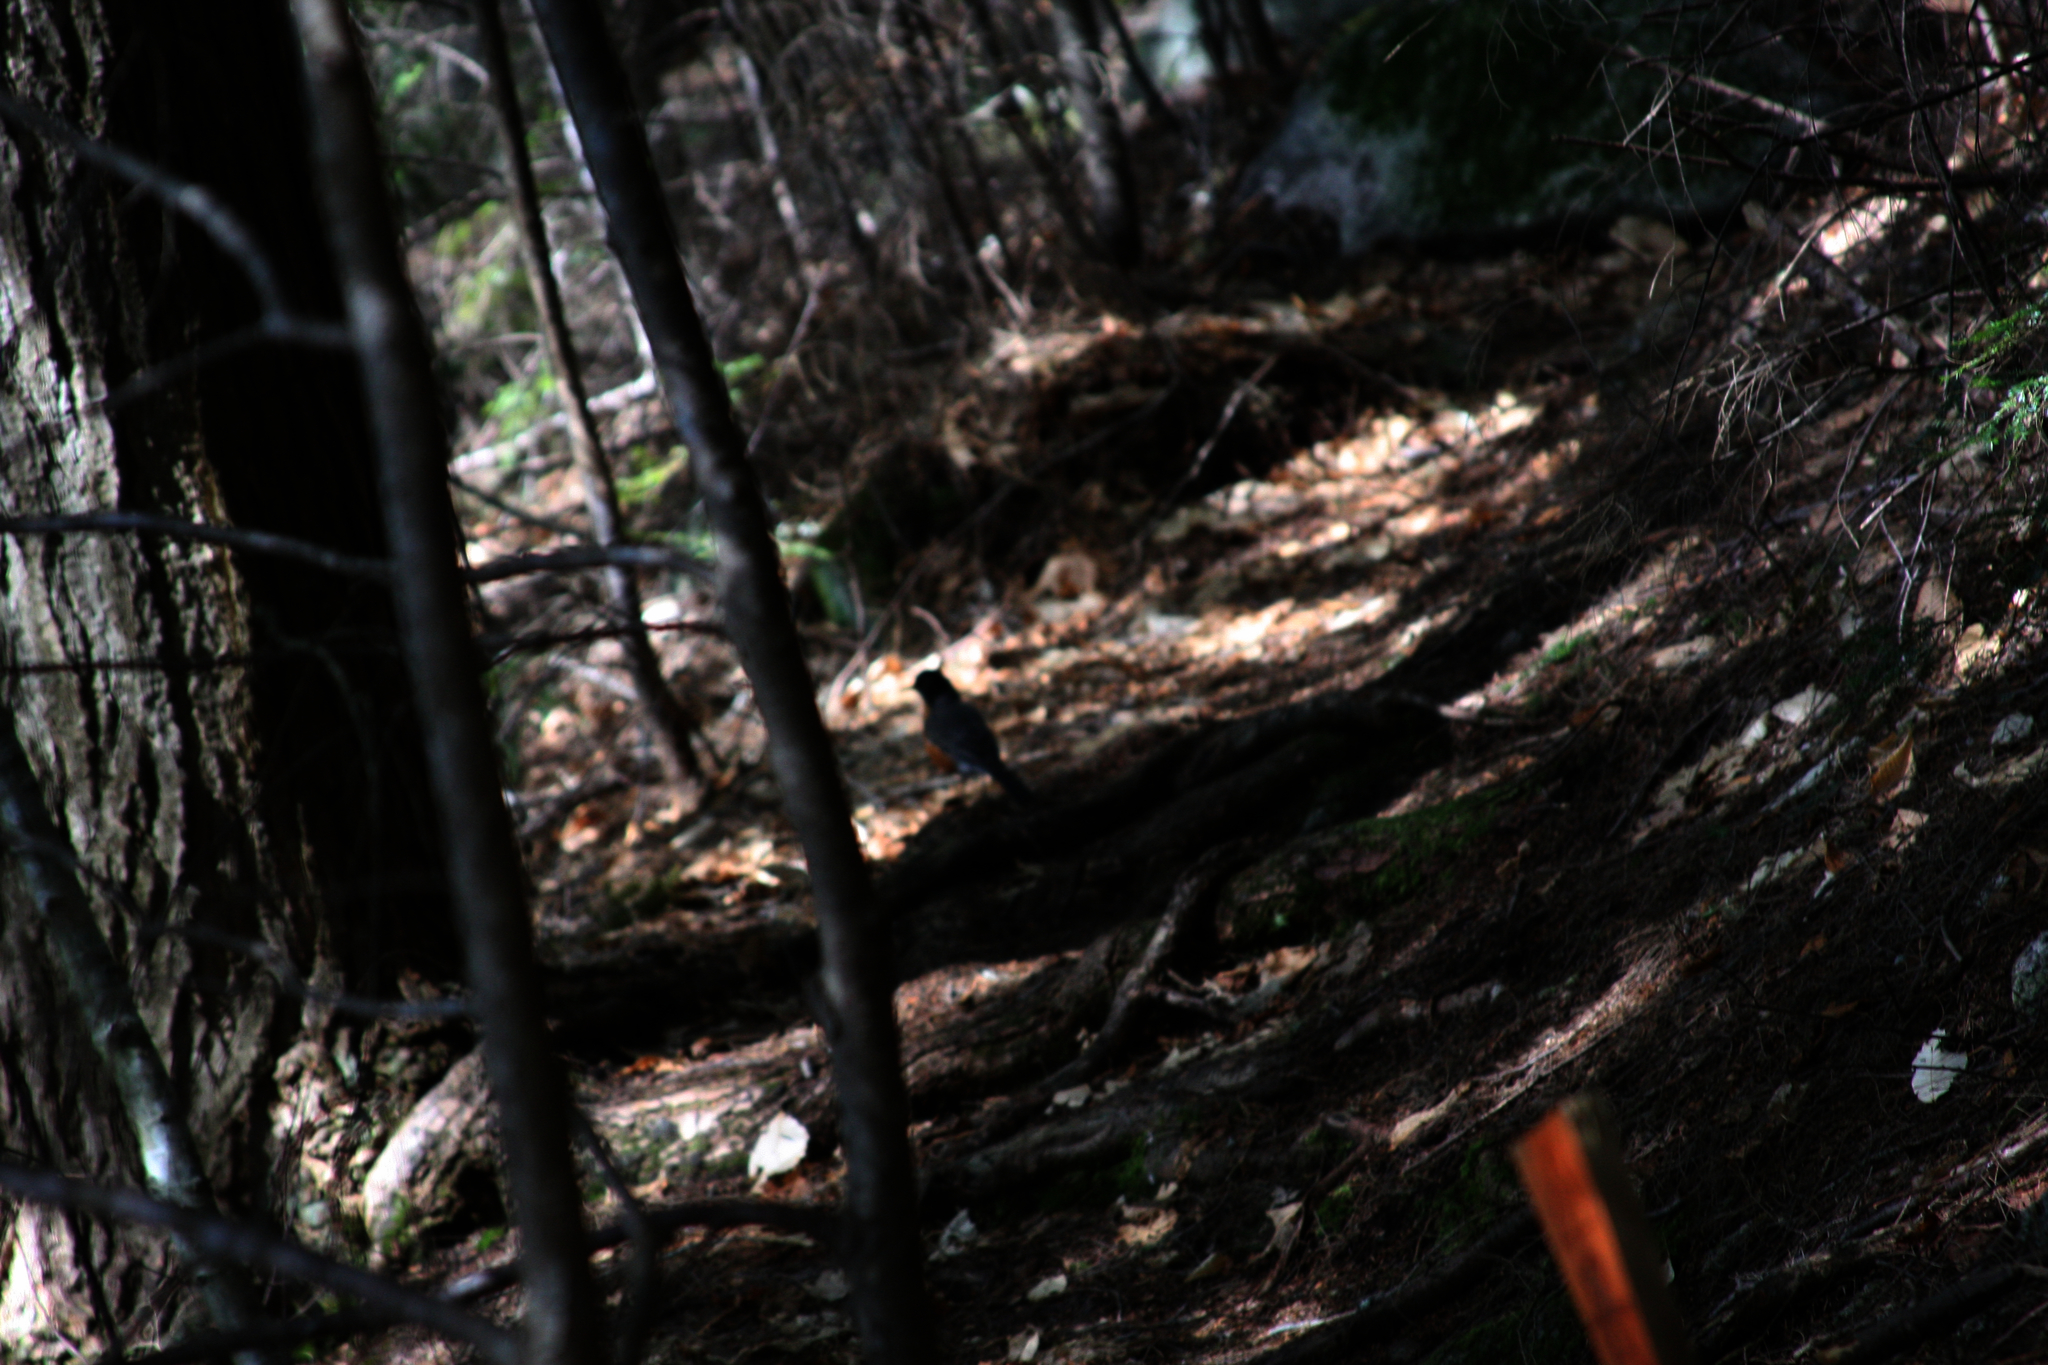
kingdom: Animalia
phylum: Chordata
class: Aves
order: Passeriformes
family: Turdidae
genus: Turdus
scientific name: Turdus migratorius
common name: American robin
